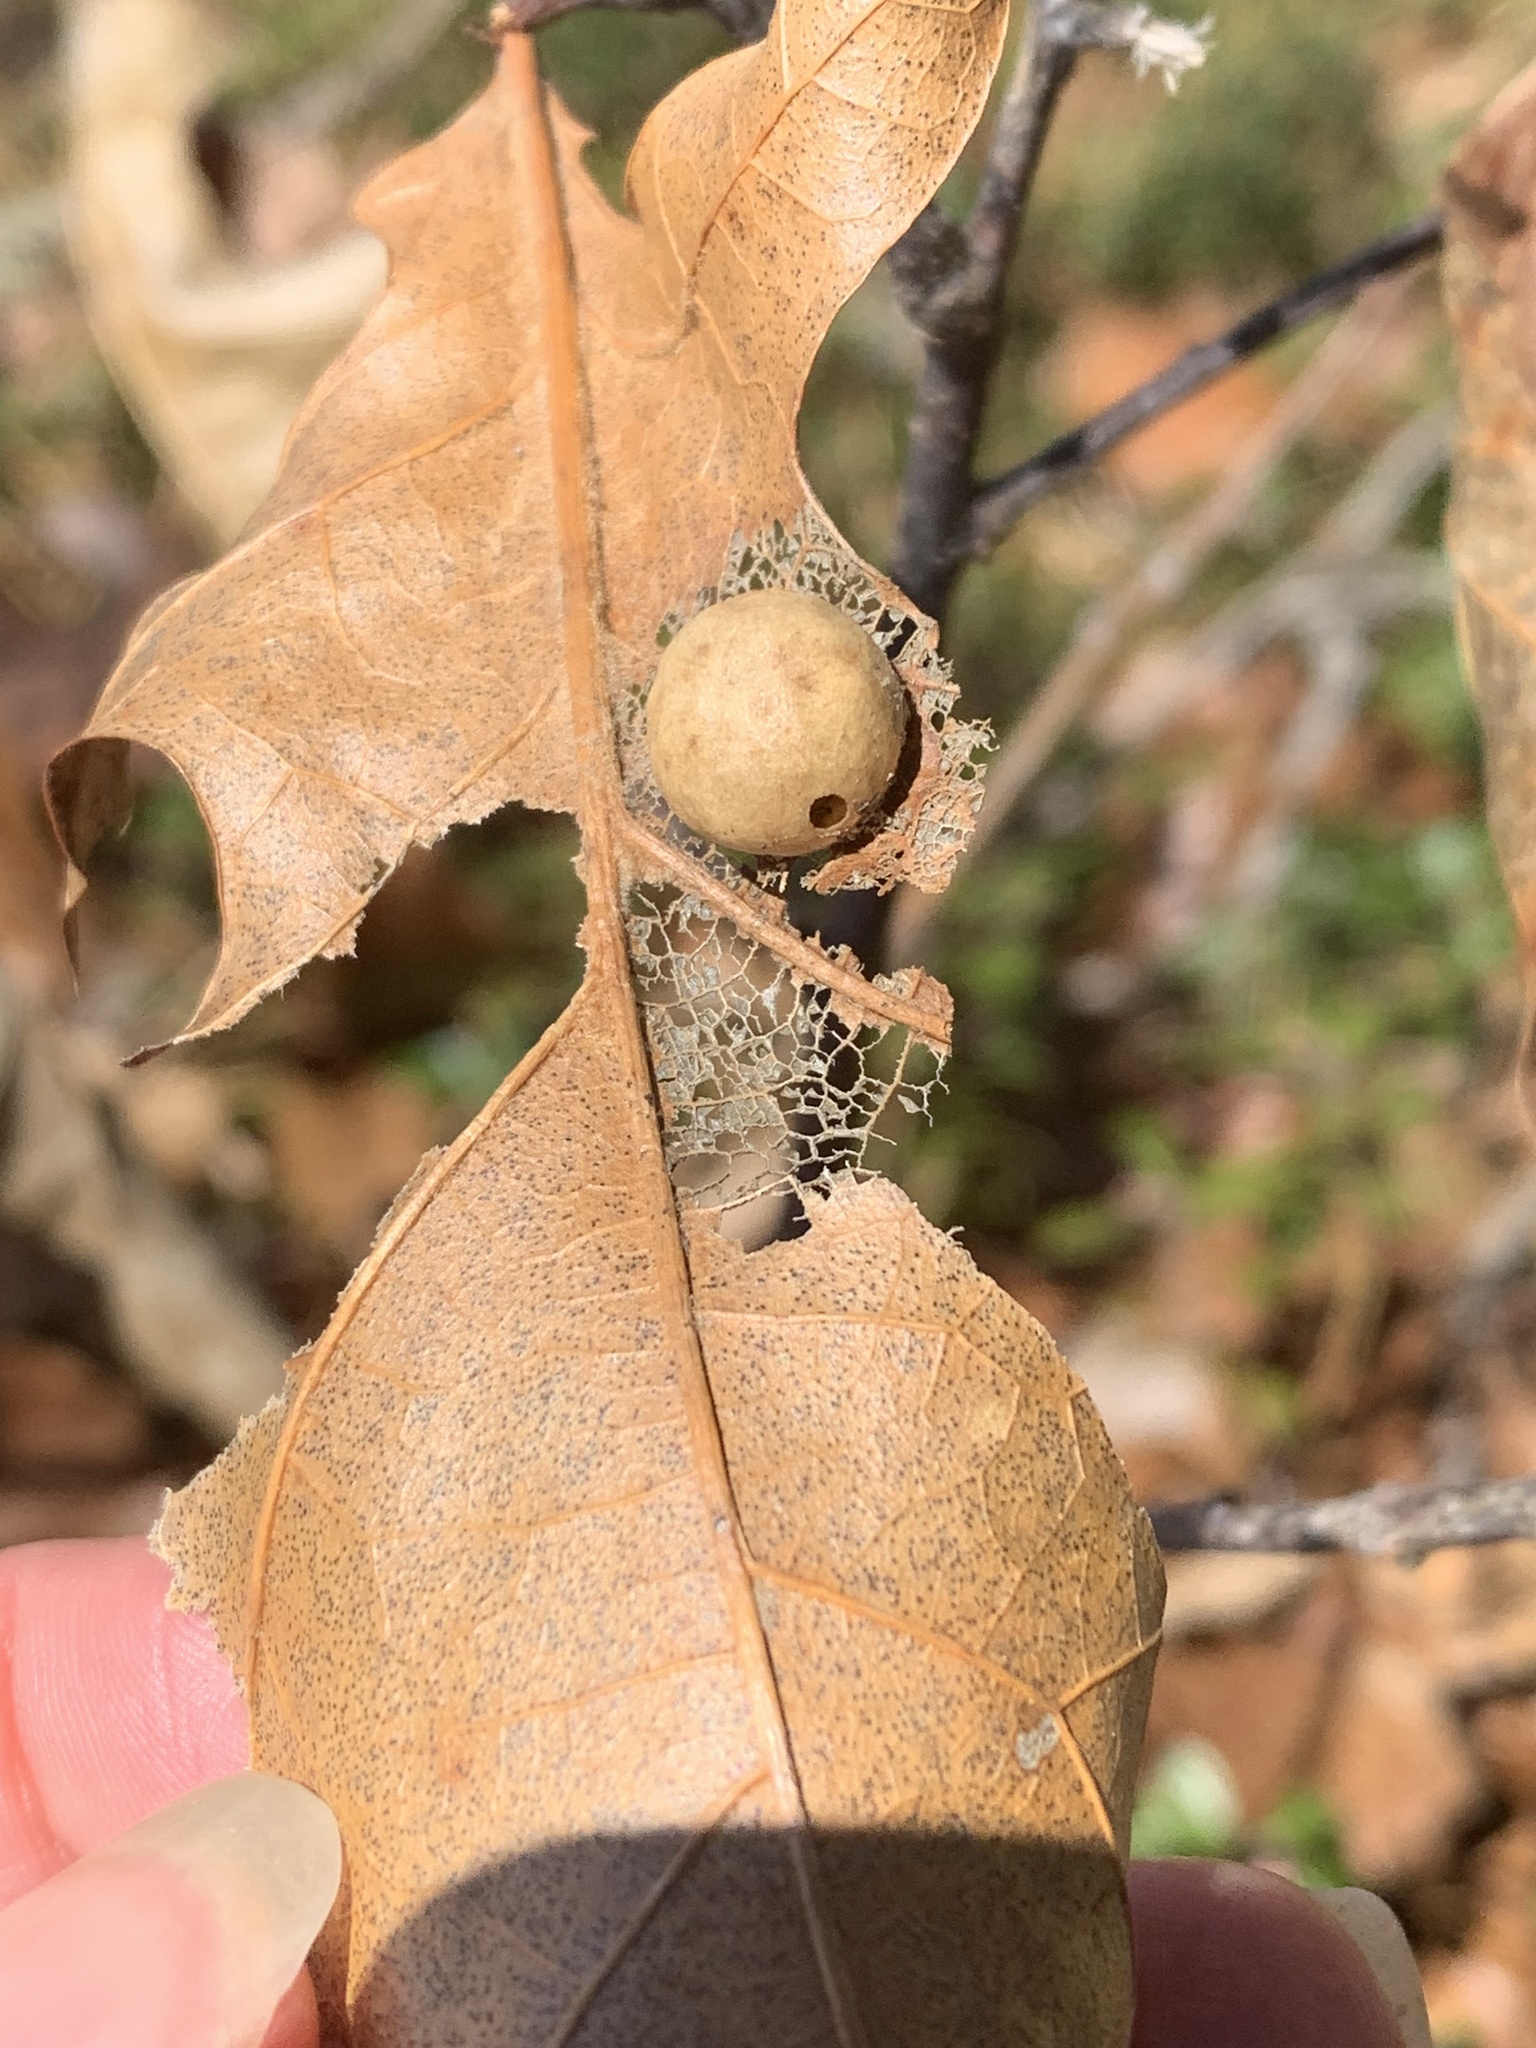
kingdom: Animalia
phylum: Arthropoda
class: Insecta
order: Hymenoptera
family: Cynipidae
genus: Amphibolips
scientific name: Amphibolips
